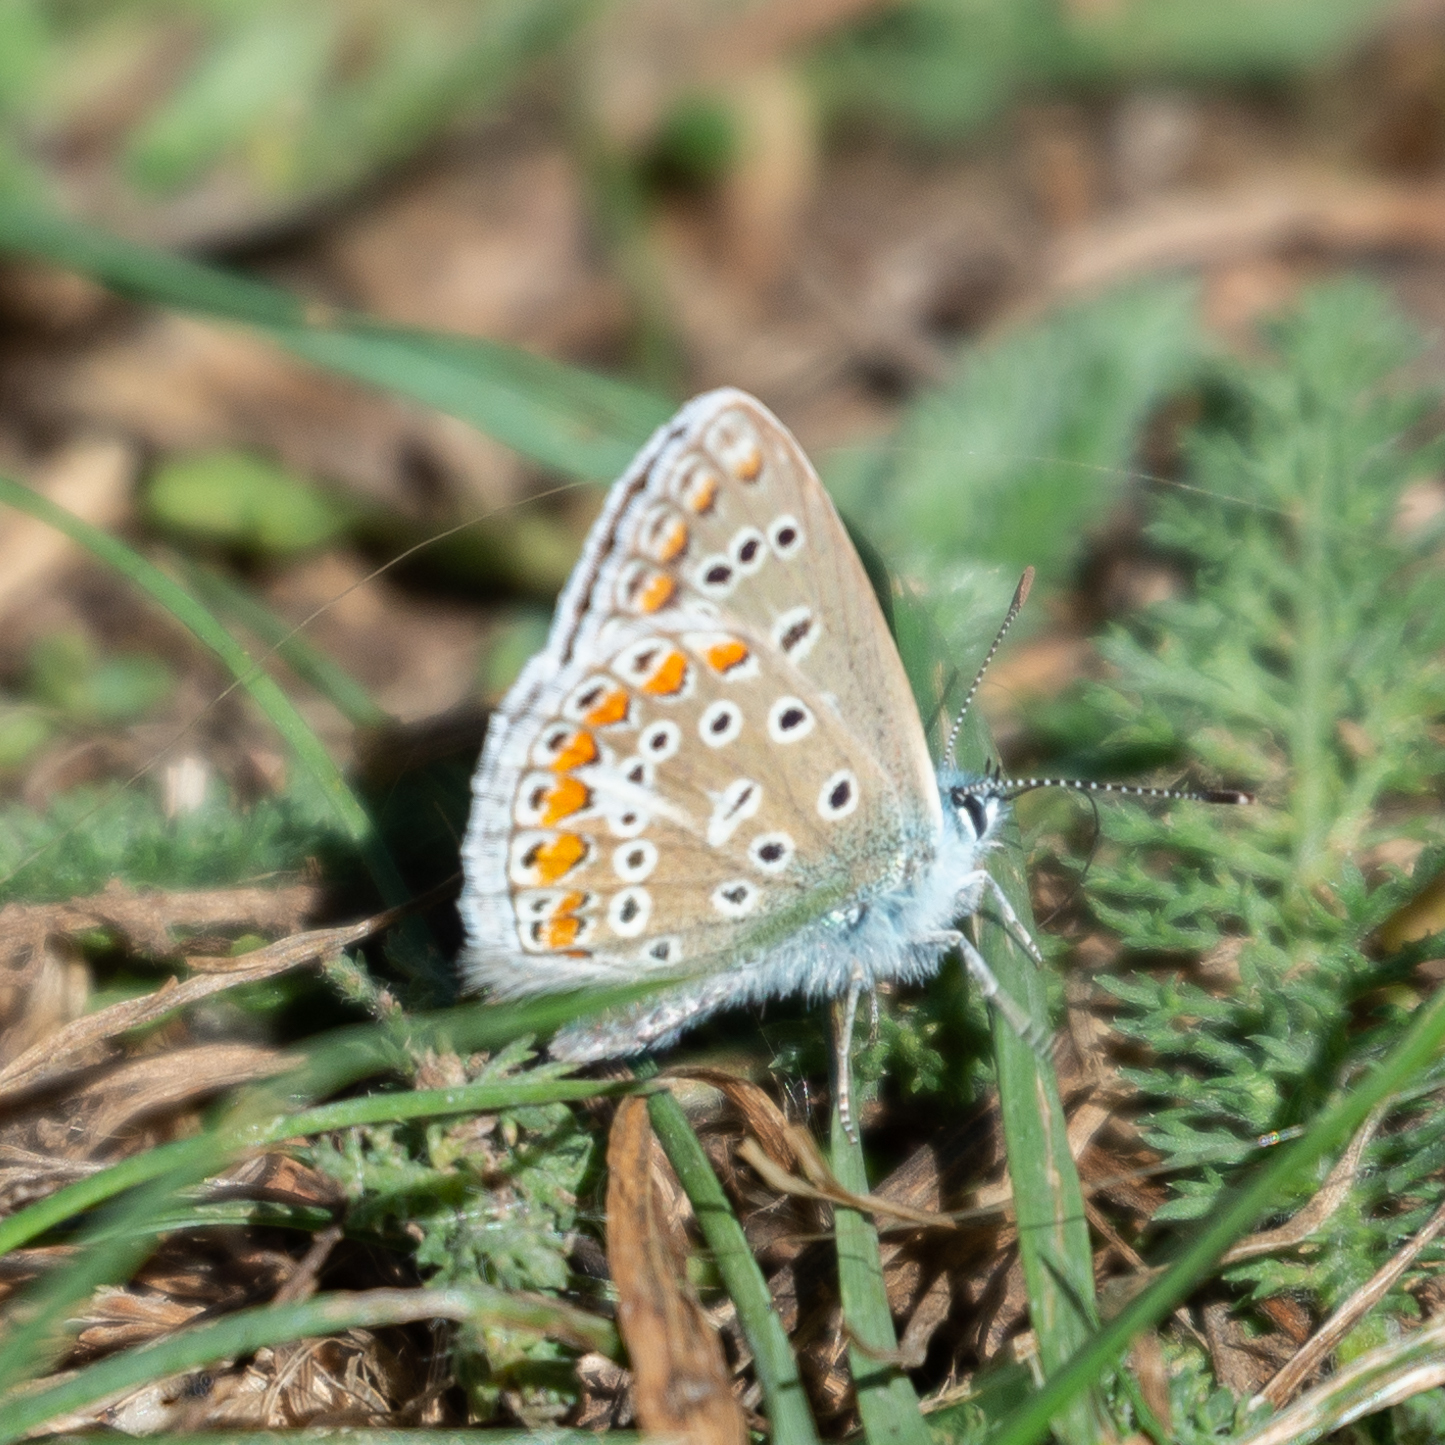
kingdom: Animalia
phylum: Arthropoda
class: Insecta
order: Lepidoptera
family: Lycaenidae
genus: Polyommatus
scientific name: Polyommatus icarus
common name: Common blue
